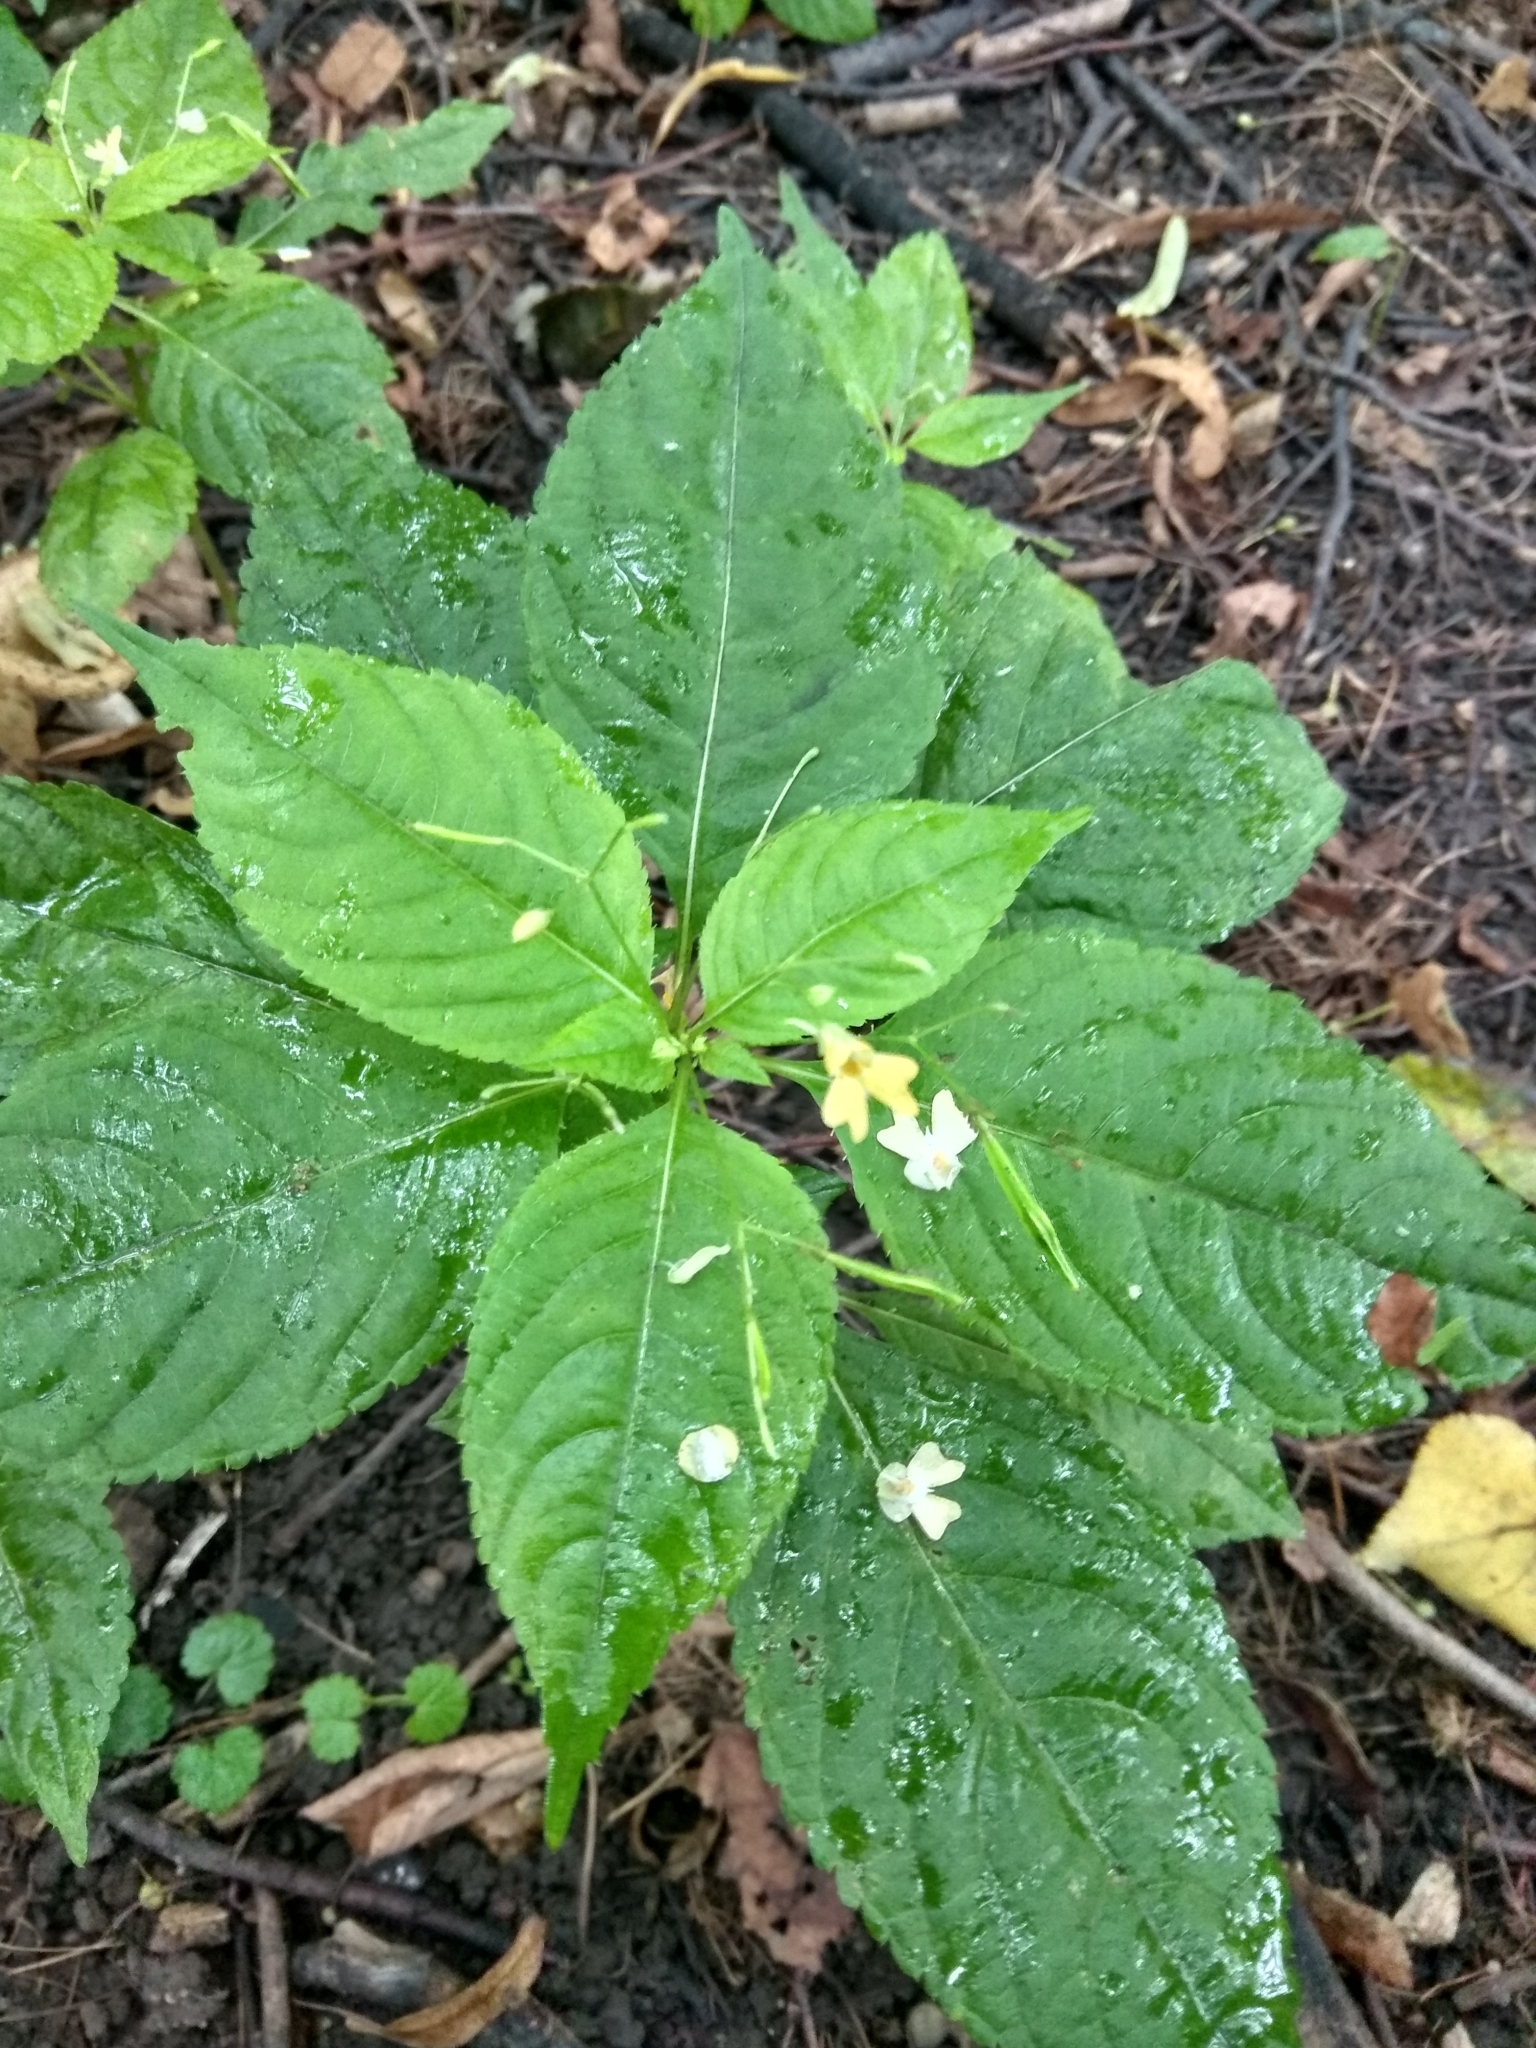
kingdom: Plantae
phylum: Tracheophyta
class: Magnoliopsida
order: Ericales
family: Balsaminaceae
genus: Impatiens
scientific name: Impatiens parviflora
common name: Small balsam
